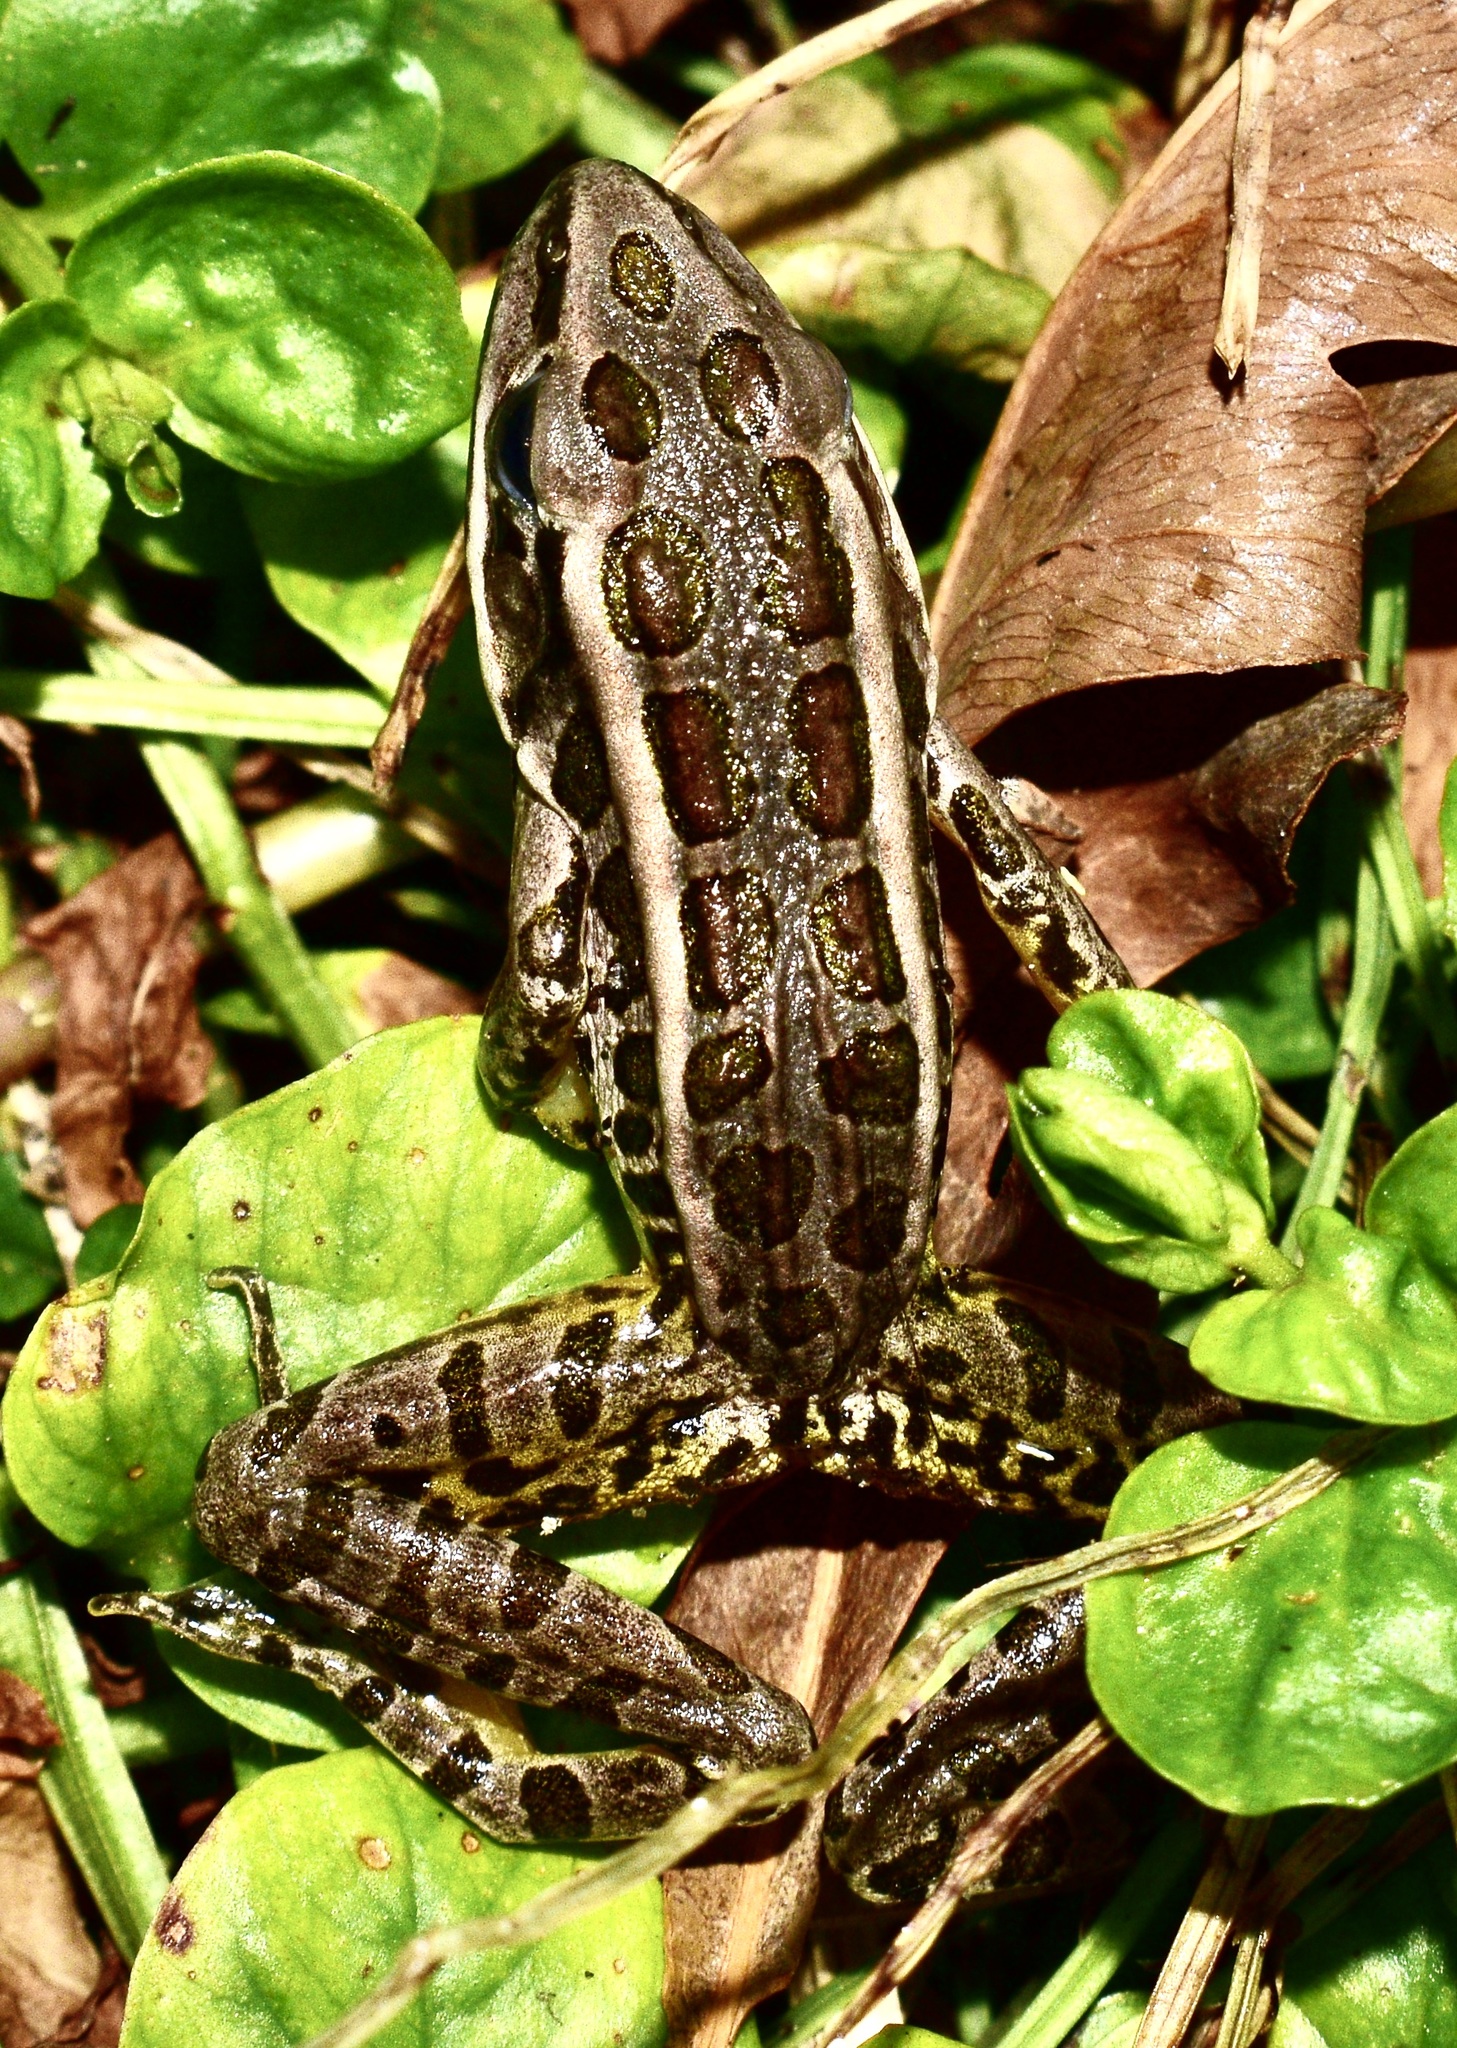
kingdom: Animalia
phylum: Chordata
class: Amphibia
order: Anura
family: Ranidae
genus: Lithobates
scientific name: Lithobates palustris
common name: Pickerel frog
